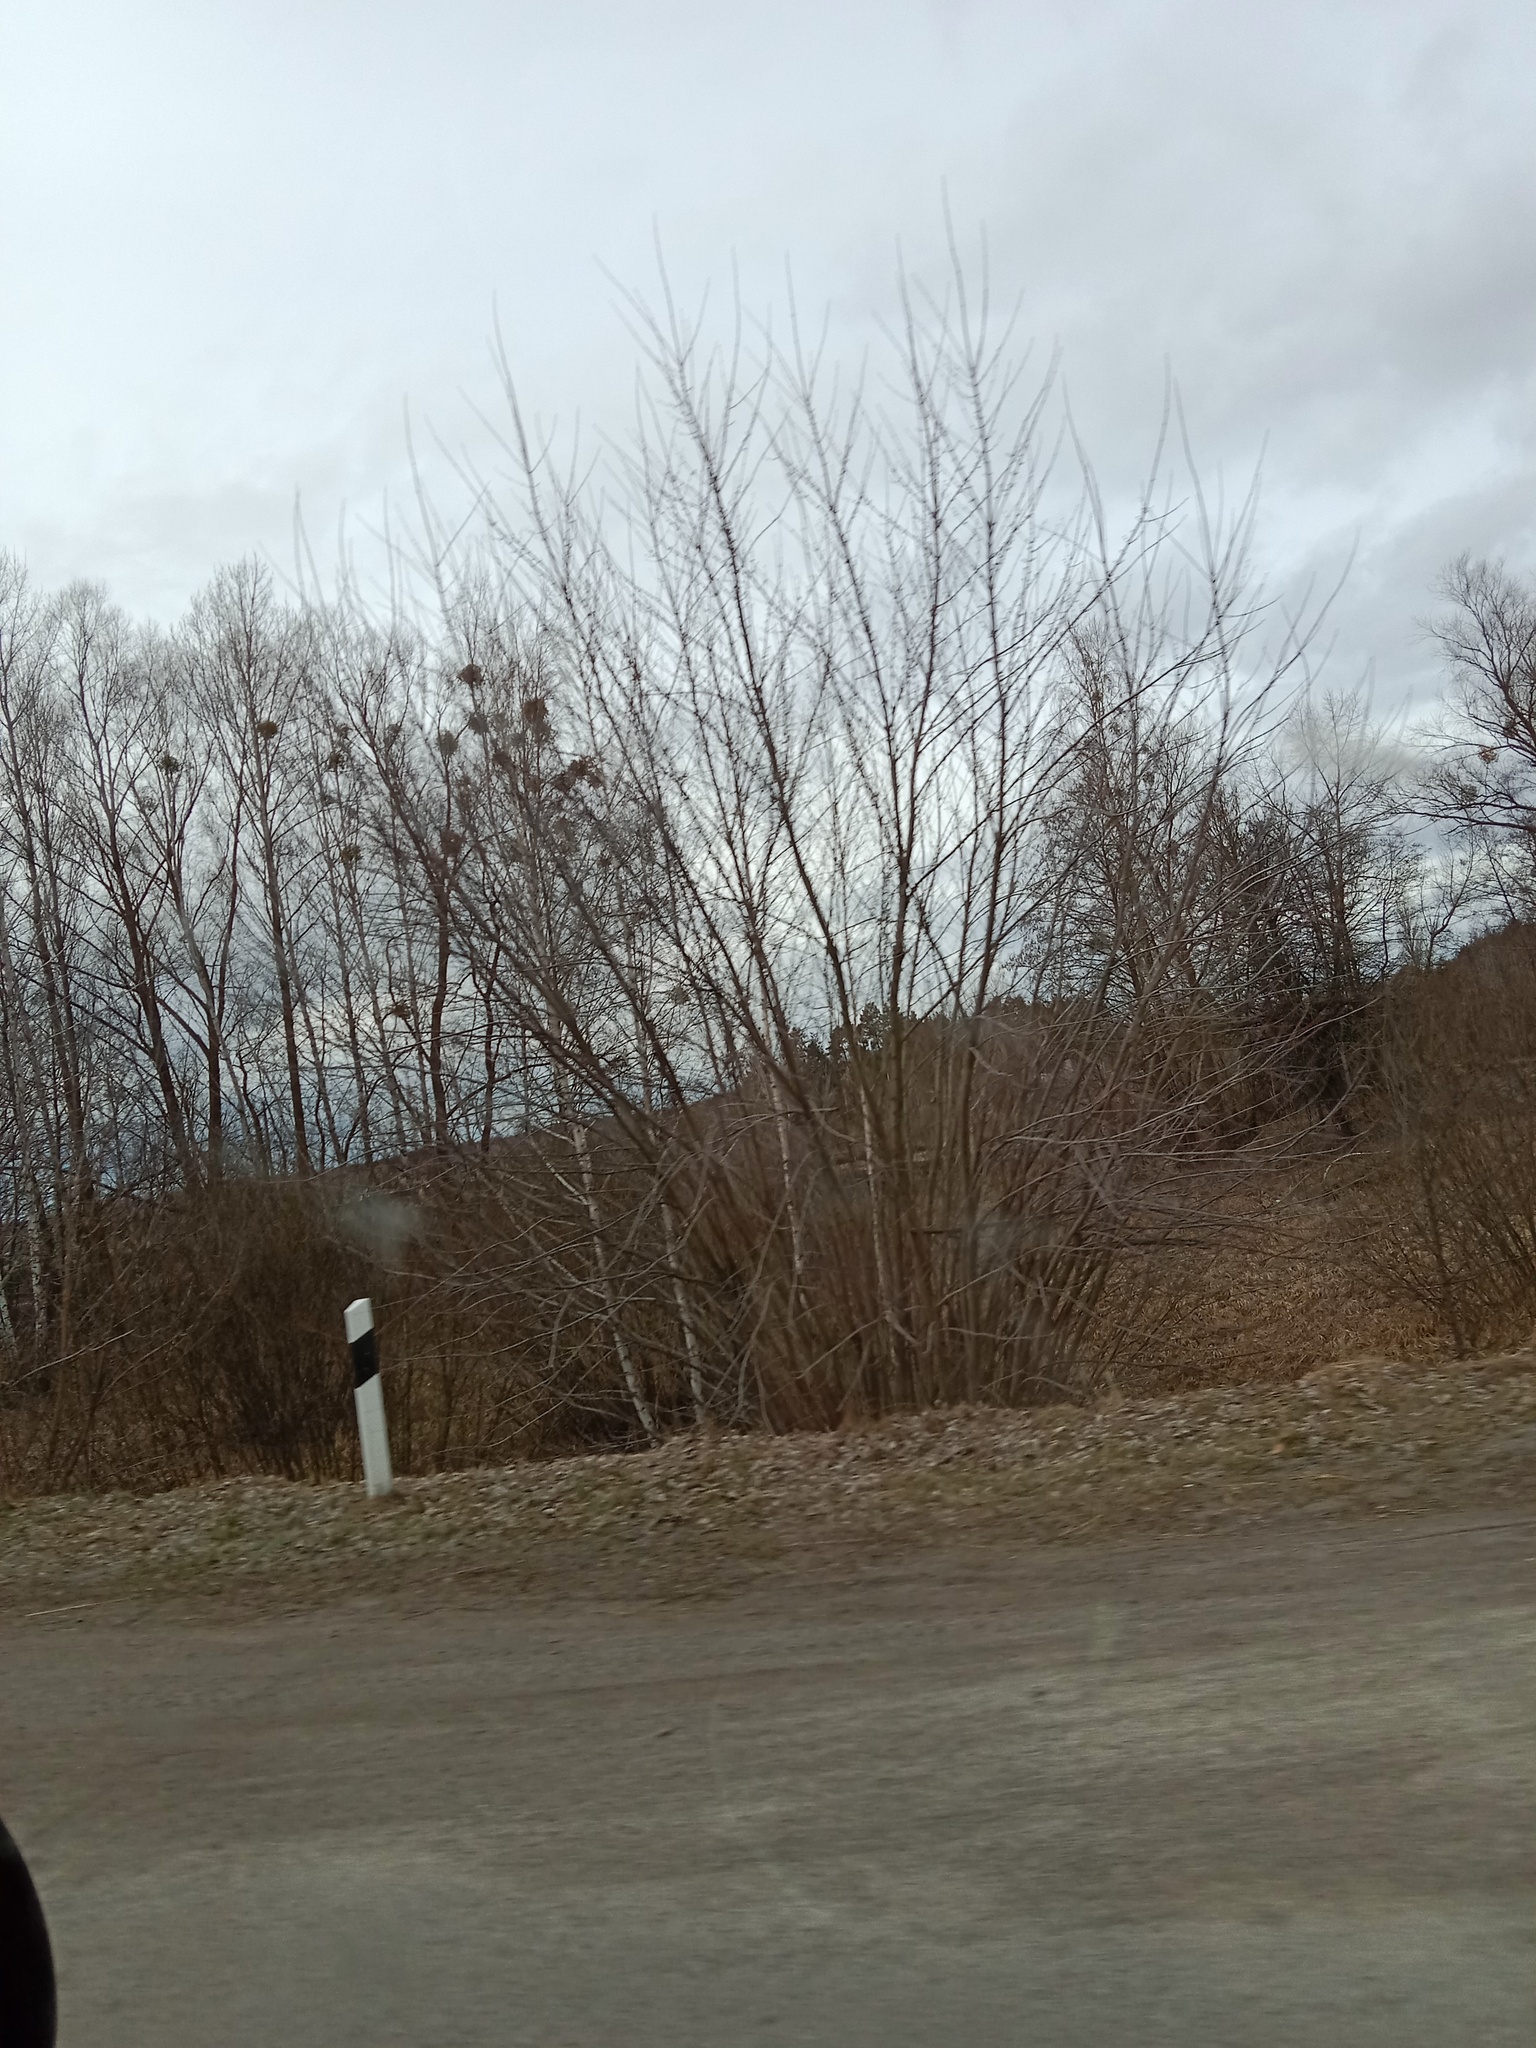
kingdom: Plantae
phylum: Tracheophyta
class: Magnoliopsida
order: Santalales
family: Viscaceae
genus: Viscum
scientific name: Viscum album
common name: Mistletoe
